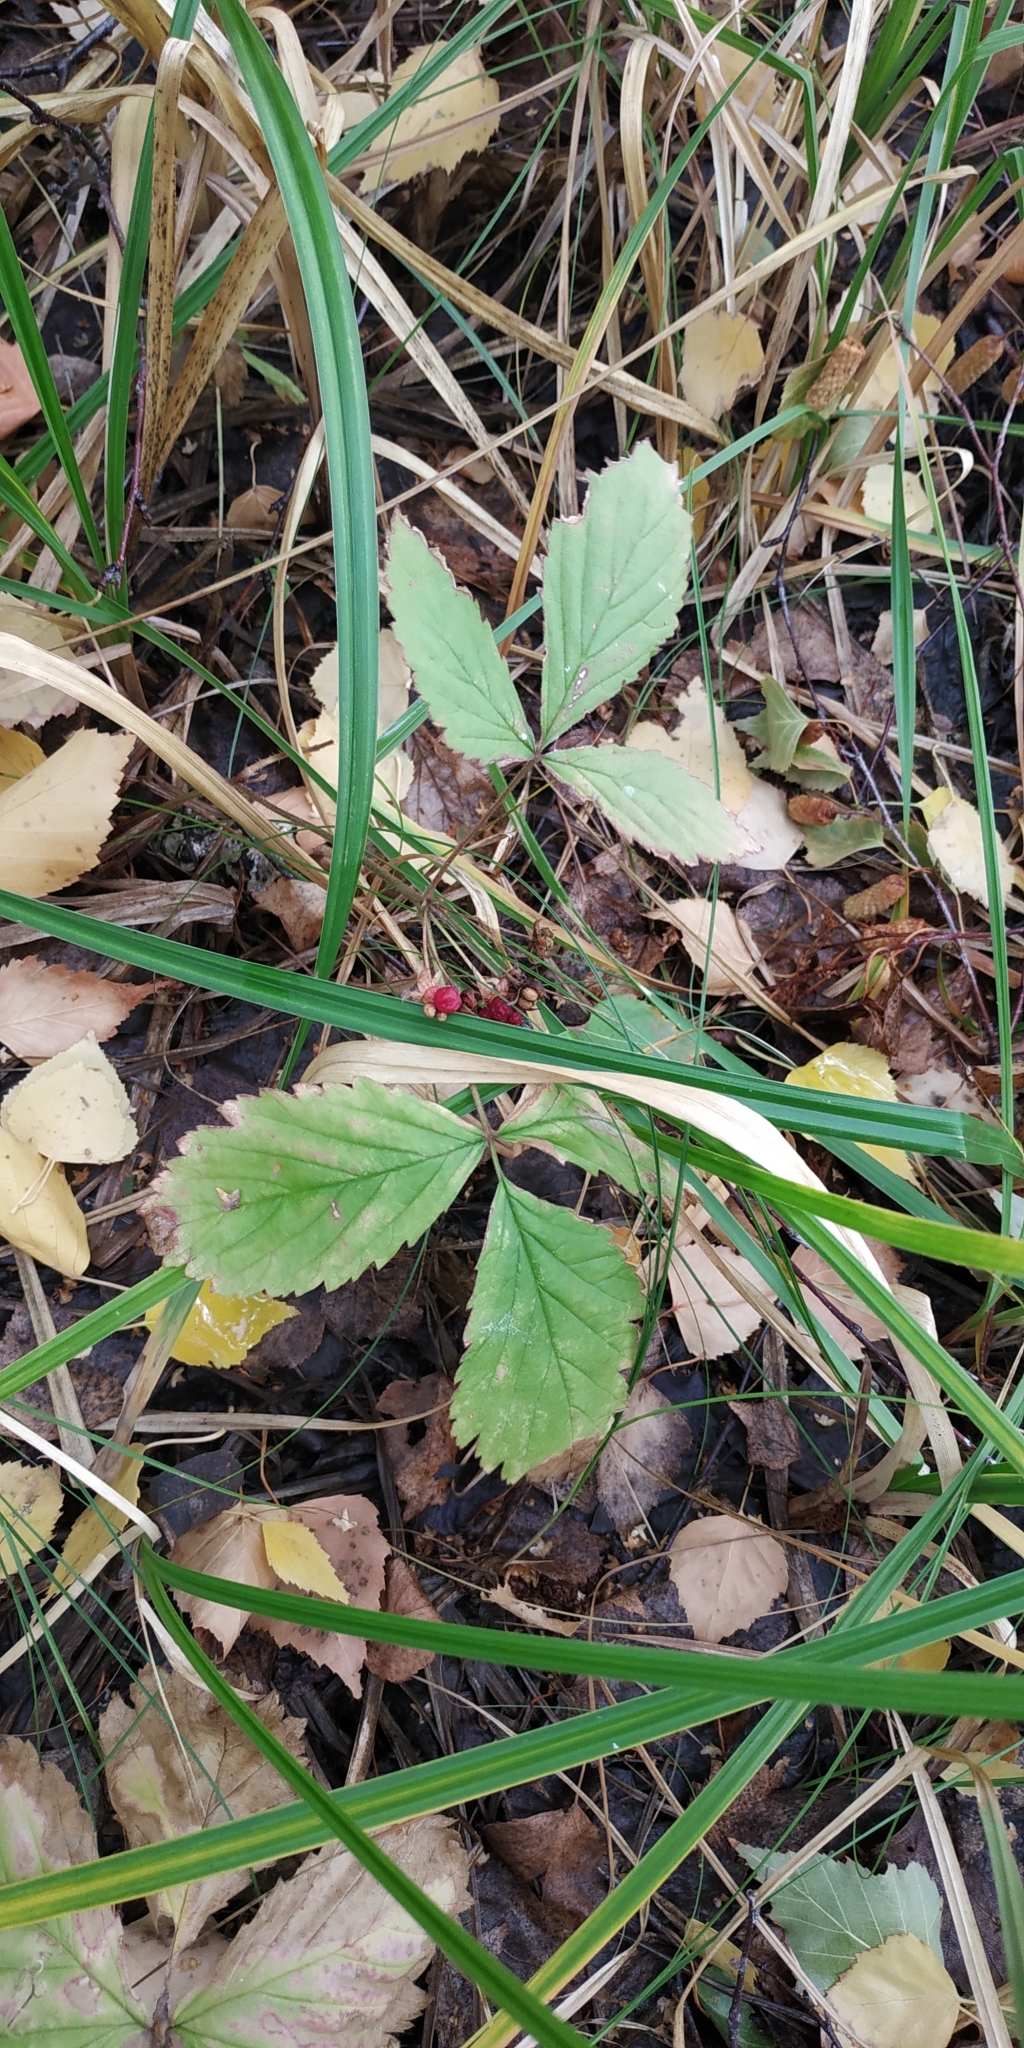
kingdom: Plantae
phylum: Tracheophyta
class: Magnoliopsida
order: Rosales
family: Rosaceae
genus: Rubus
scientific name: Rubus saxatilis
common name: Stone bramble
